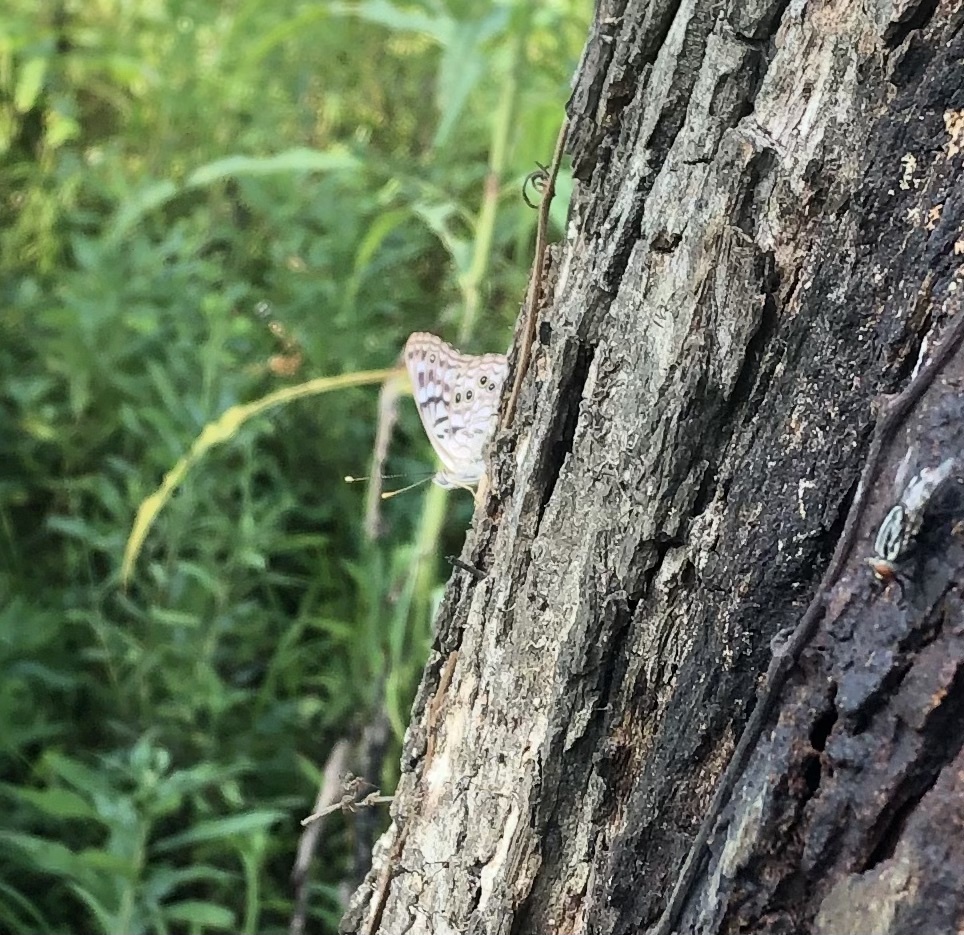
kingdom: Animalia
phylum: Arthropoda
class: Insecta
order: Lepidoptera
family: Nymphalidae
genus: Asterocampa
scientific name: Asterocampa celtis
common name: Hackberry emperor
